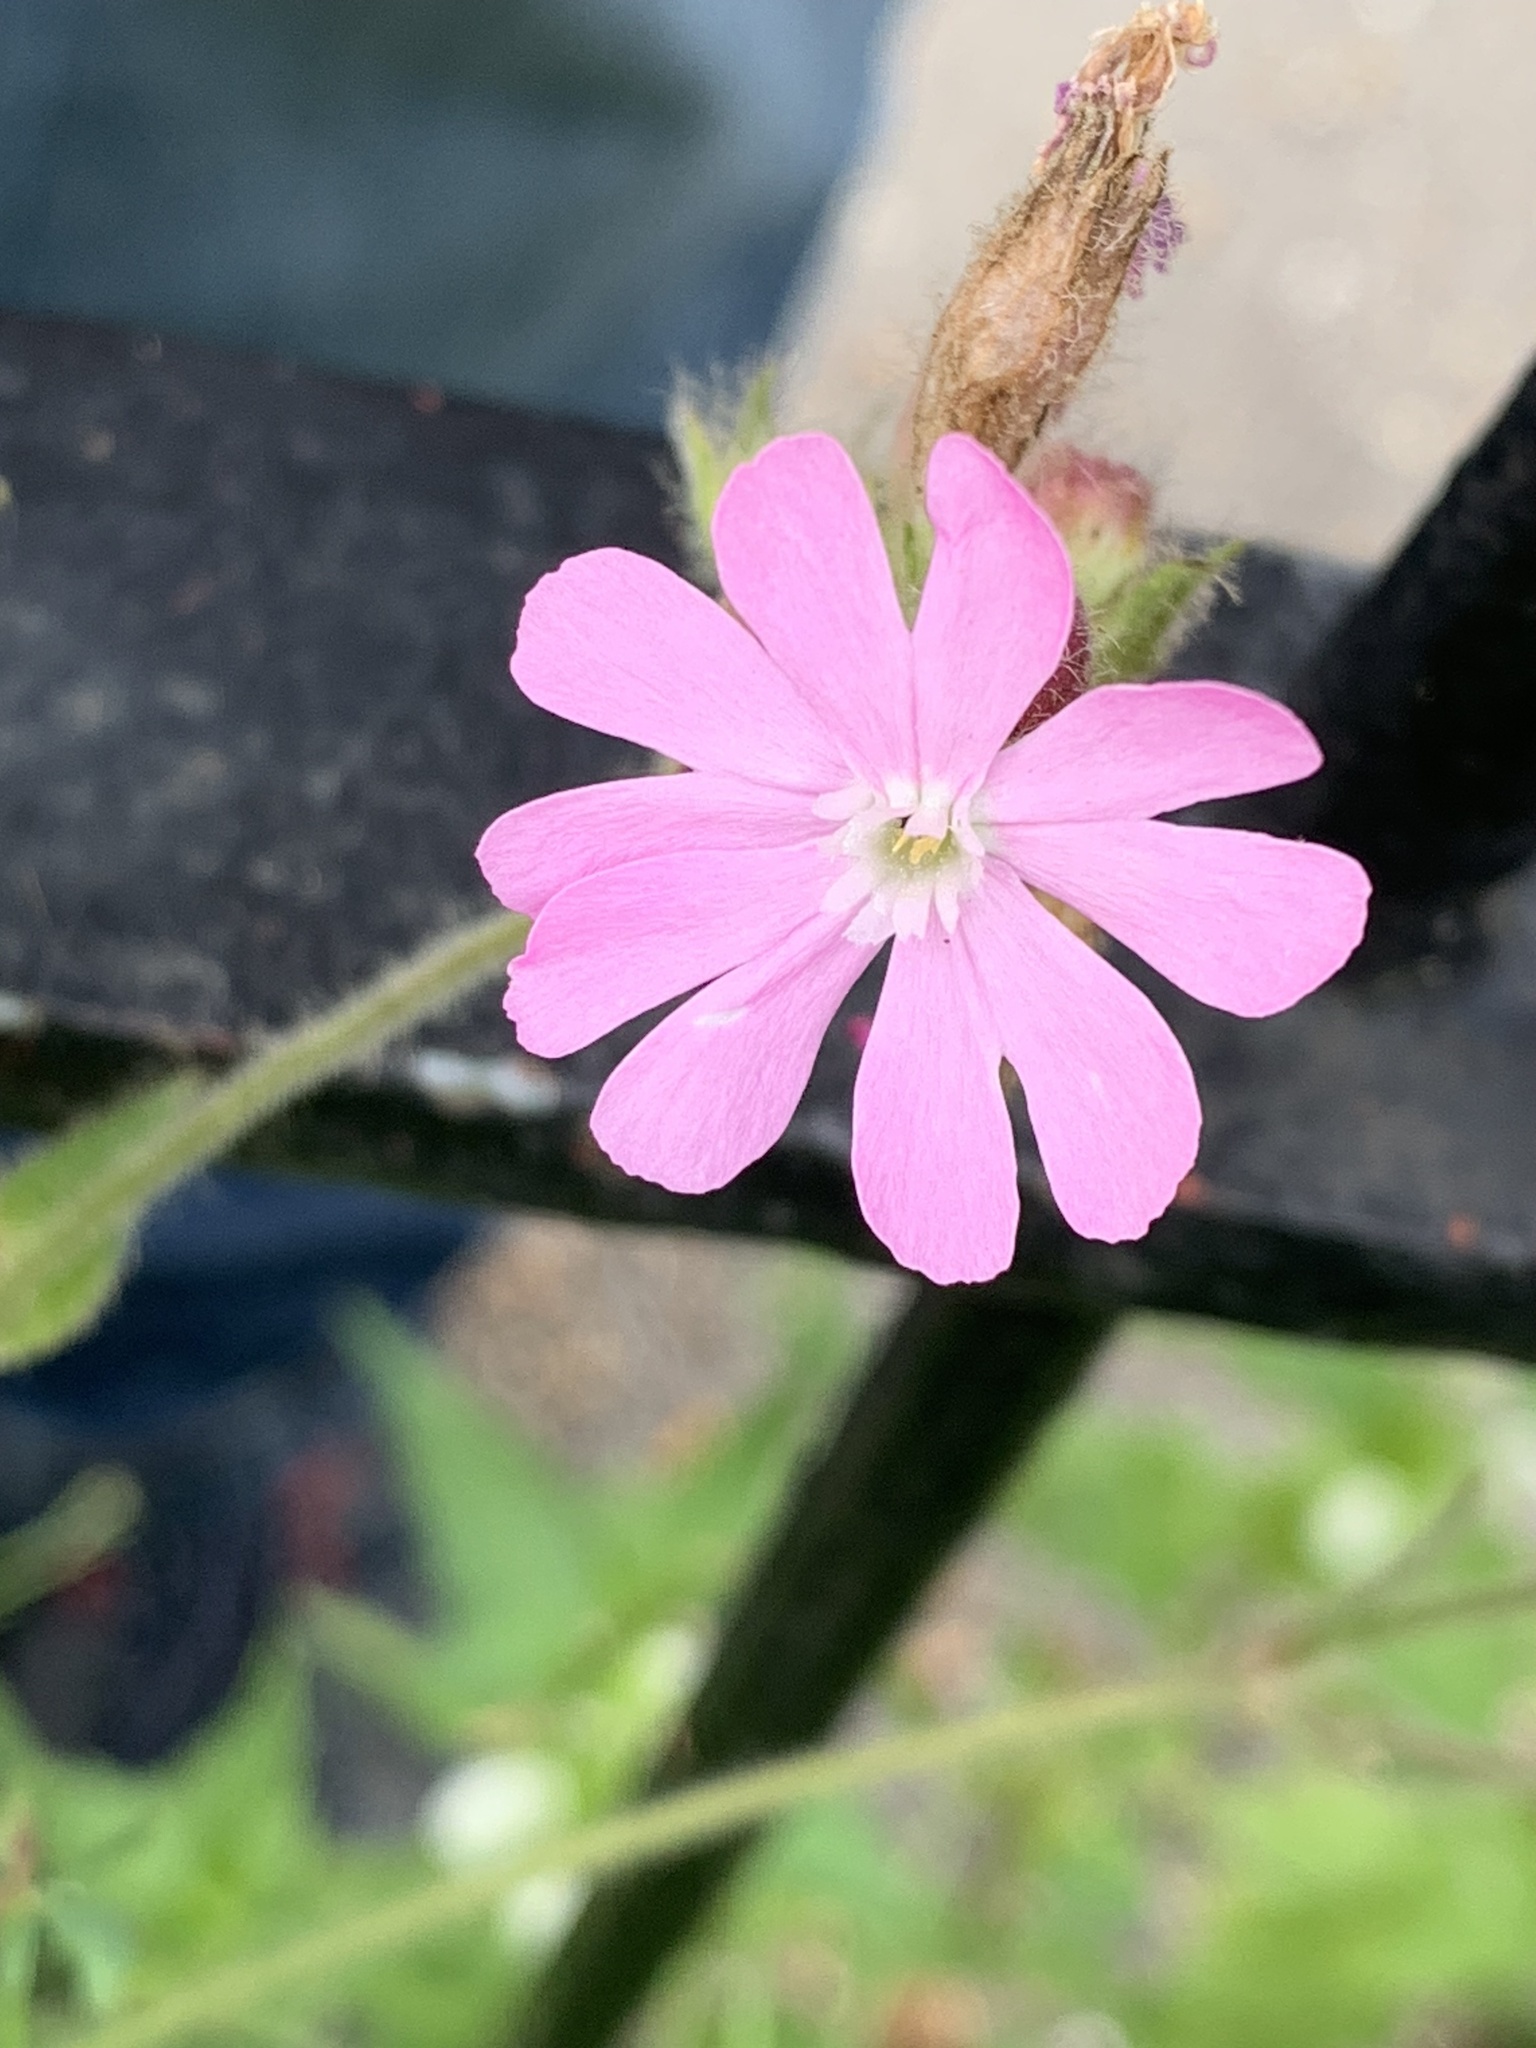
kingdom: Plantae
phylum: Tracheophyta
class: Magnoliopsida
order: Caryophyllales
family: Caryophyllaceae
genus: Silene
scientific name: Silene dioica
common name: Red campion
